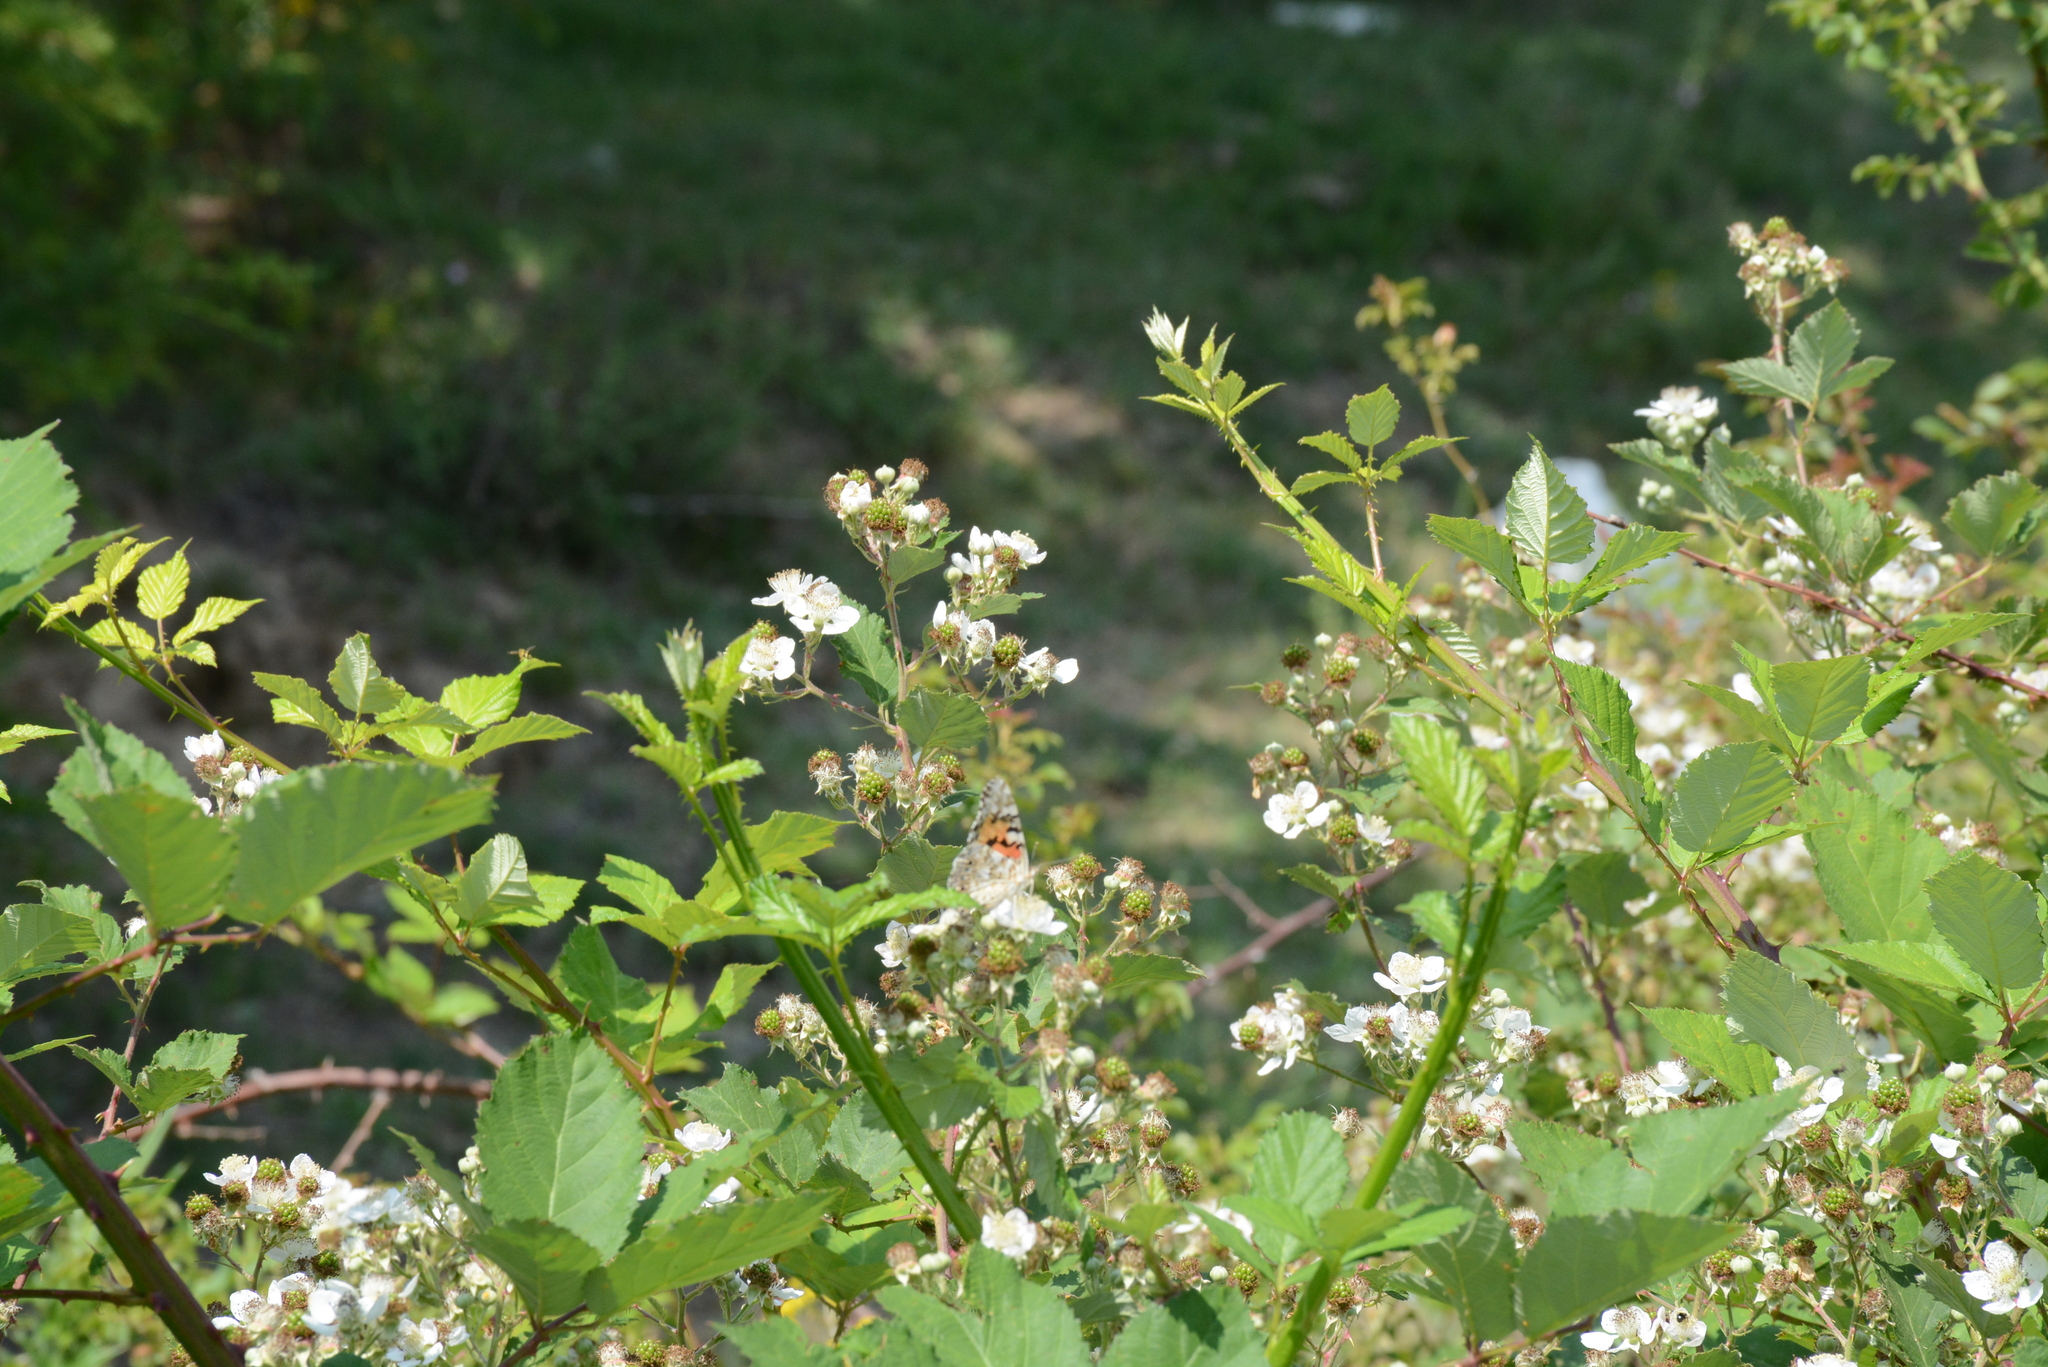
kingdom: Animalia
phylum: Arthropoda
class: Insecta
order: Lepidoptera
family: Nymphalidae
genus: Vanessa
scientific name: Vanessa cardui
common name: Painted lady
